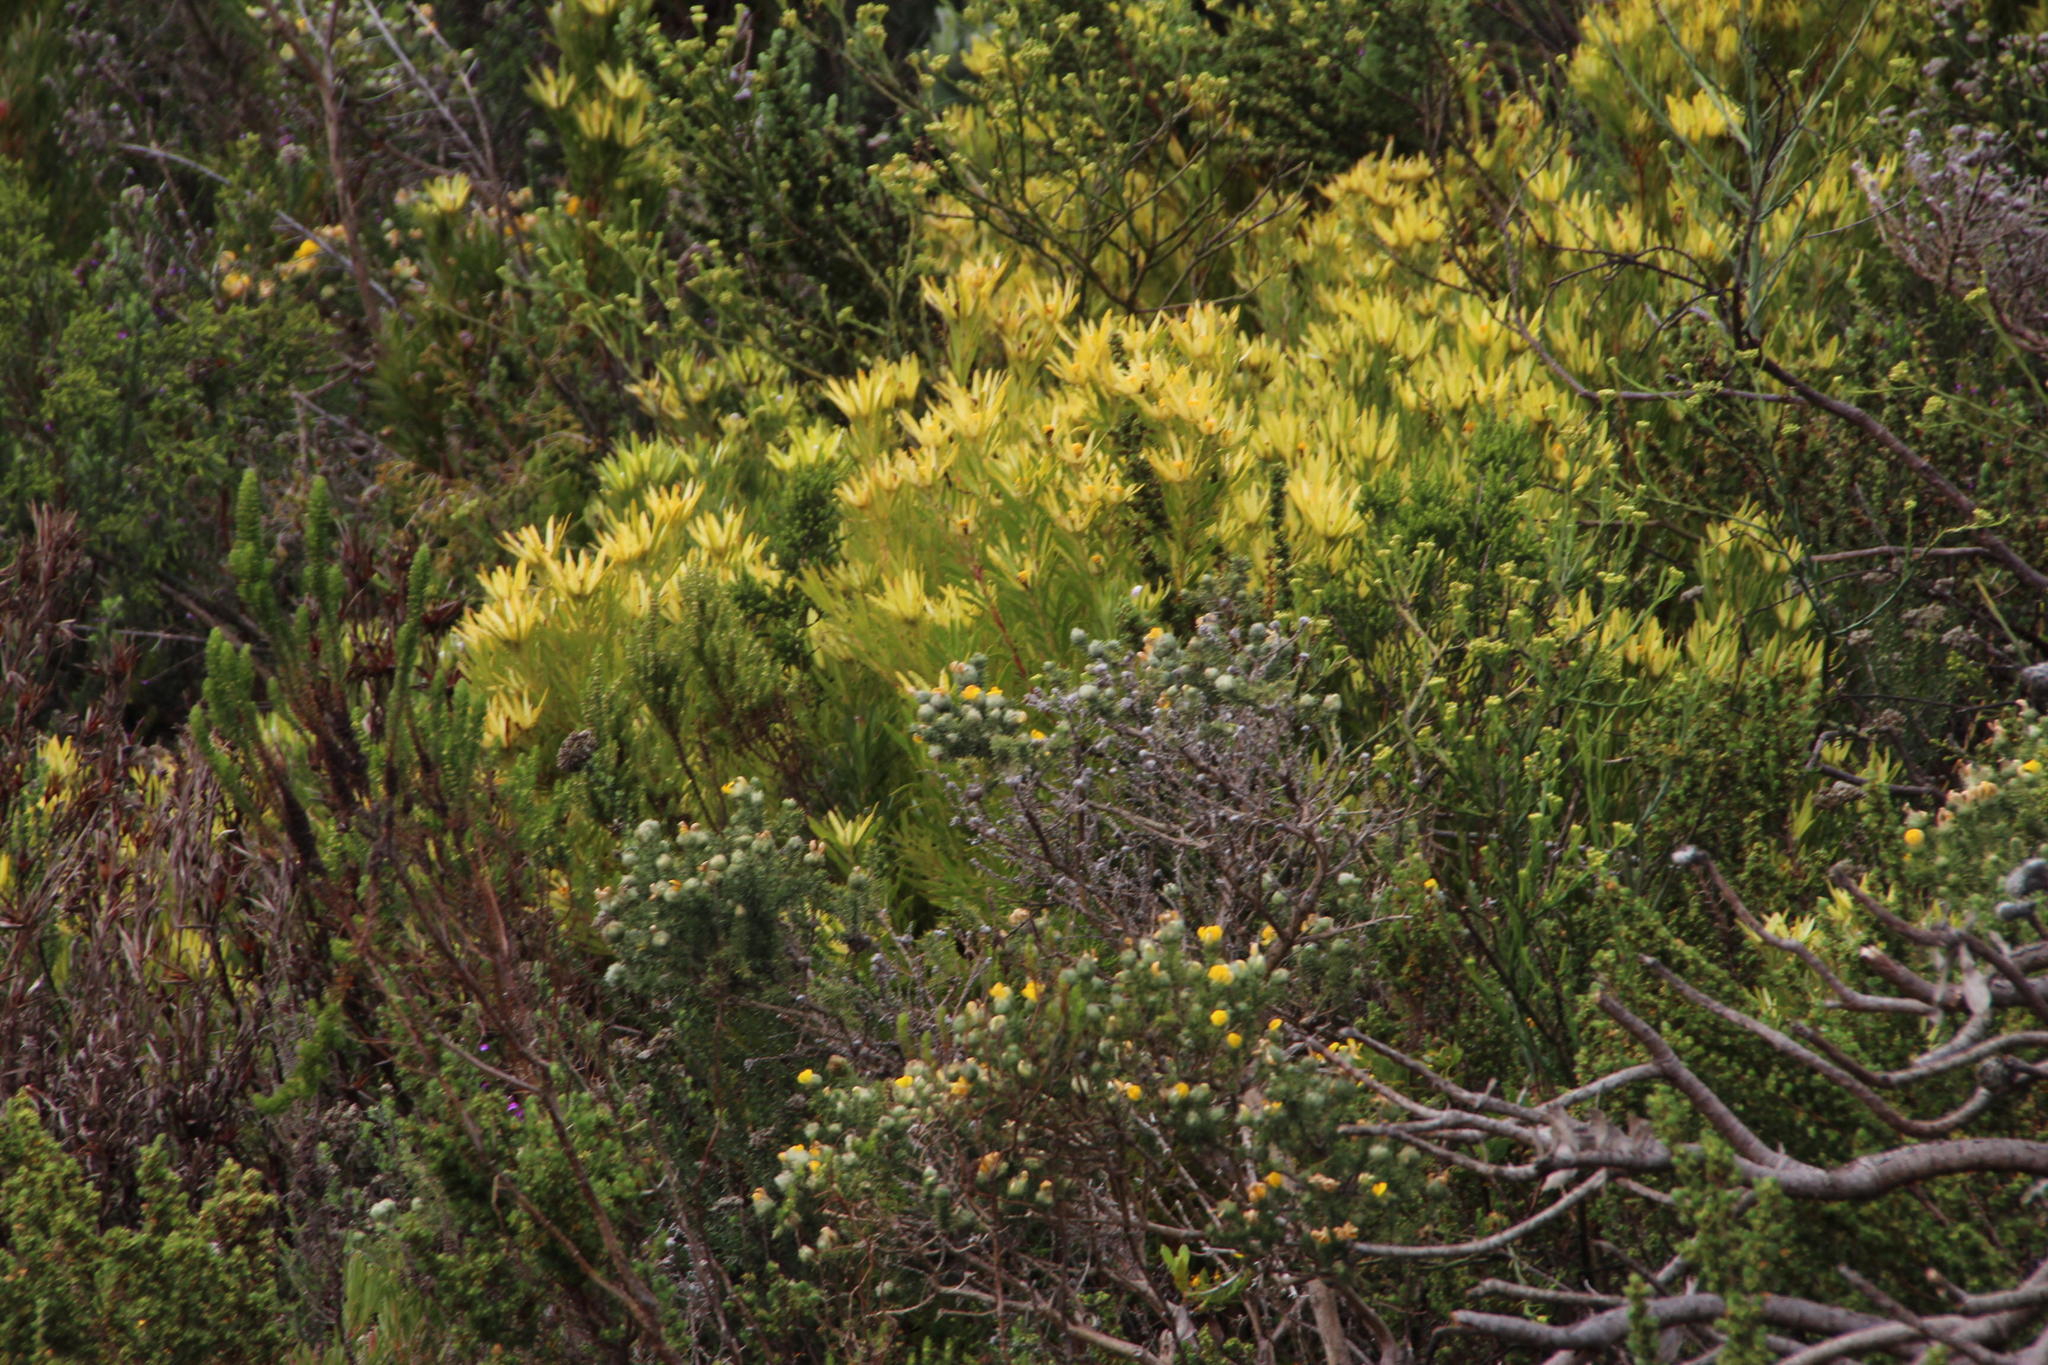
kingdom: Plantae
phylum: Tracheophyta
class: Magnoliopsida
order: Proteales
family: Proteaceae
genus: Leucadendron
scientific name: Leucadendron xanthoconus
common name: Sickle-leaf conebush
